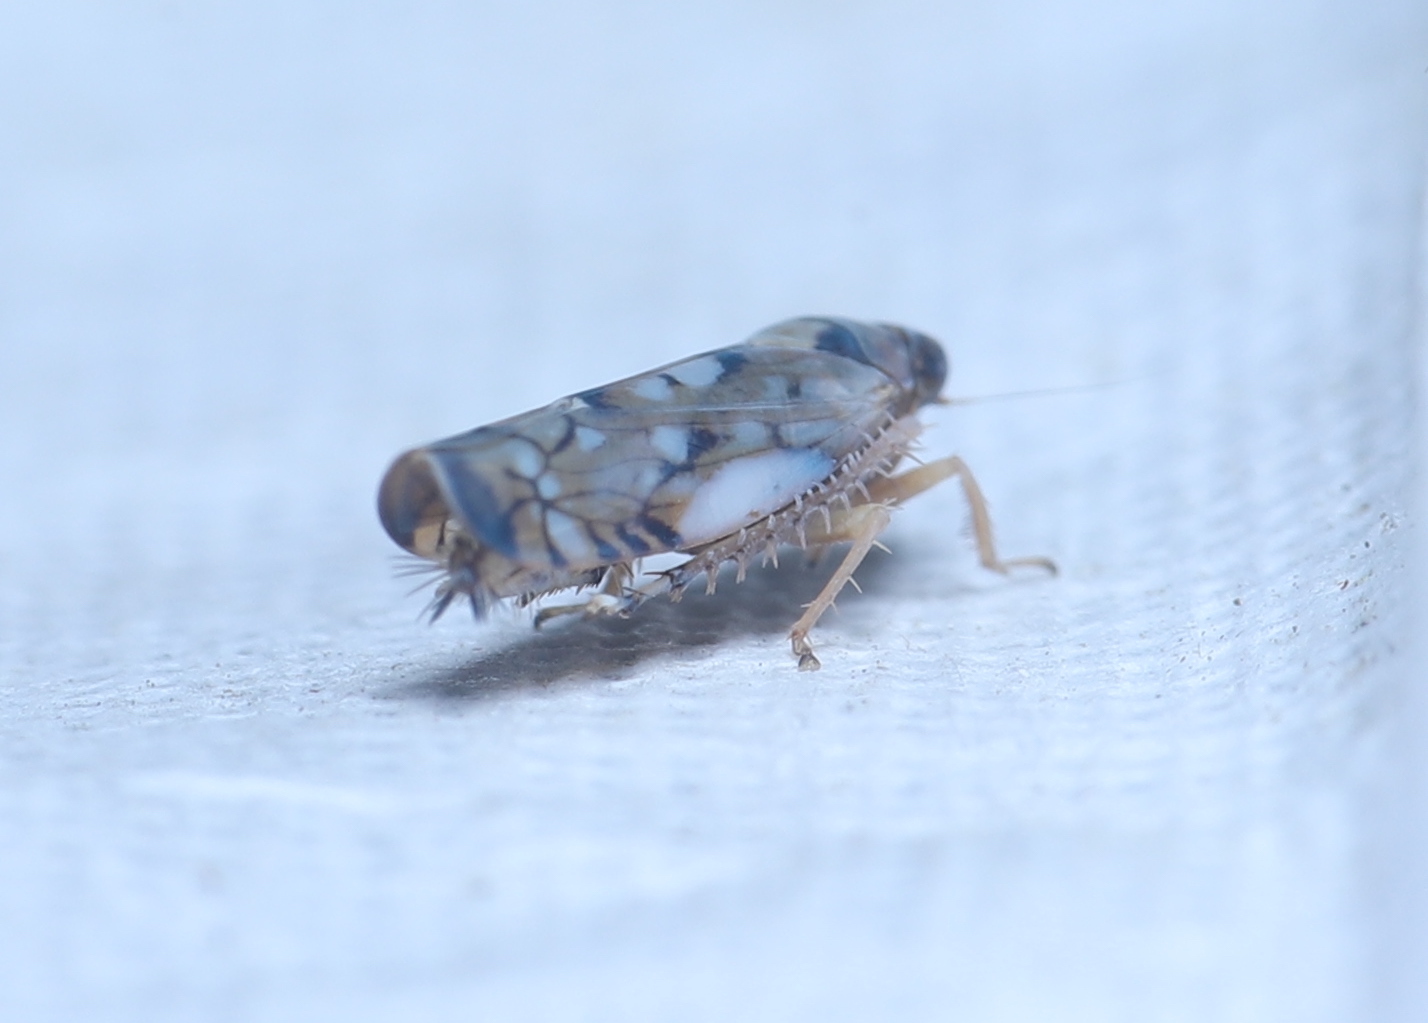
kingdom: Animalia
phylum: Arthropoda
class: Insecta
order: Hemiptera
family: Cicadellidae
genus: Scaphoideus
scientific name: Scaphoideus opalinus
